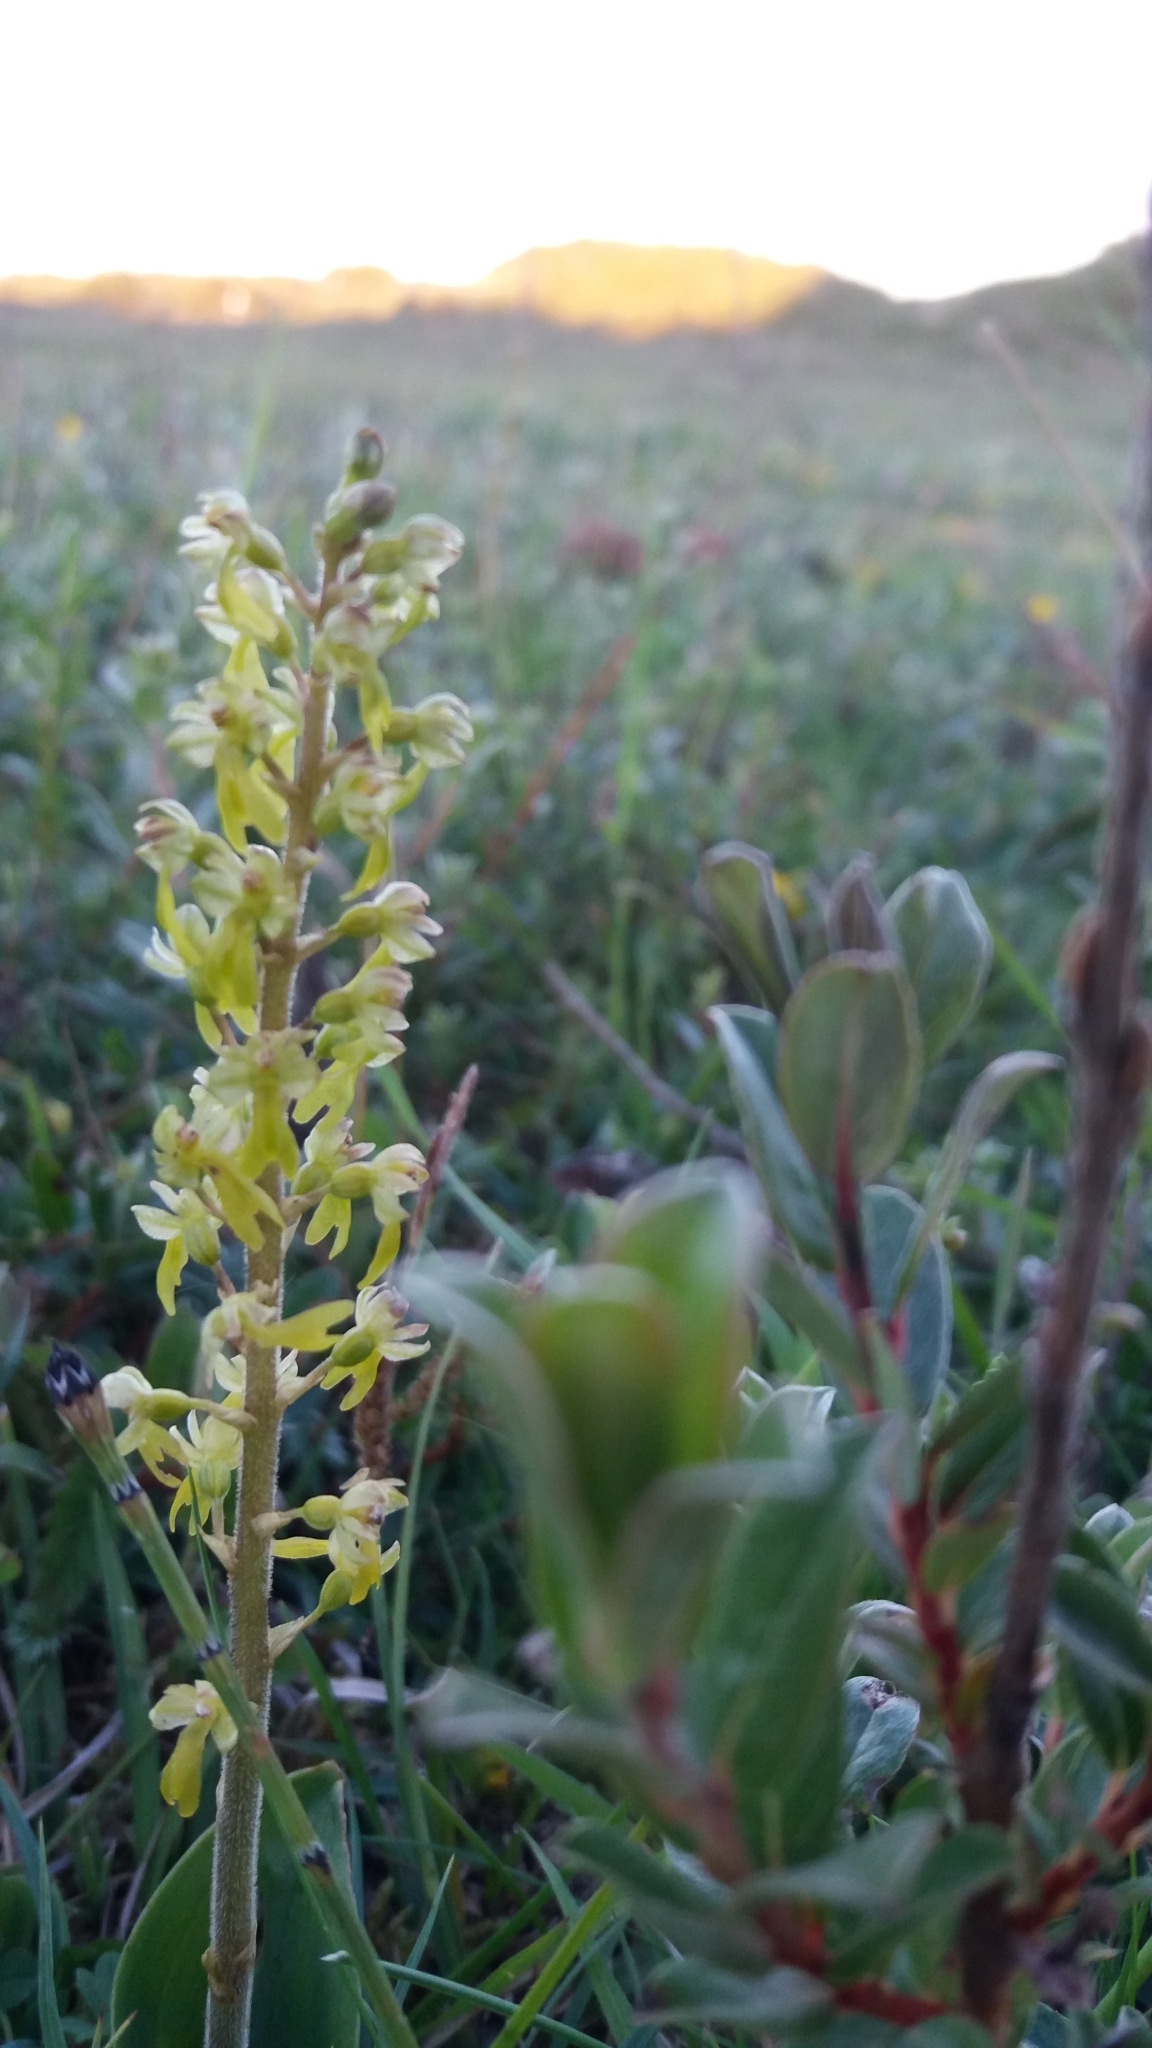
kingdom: Plantae
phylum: Tracheophyta
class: Liliopsida
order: Asparagales
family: Orchidaceae
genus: Neottia
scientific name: Neottia ovata
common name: Common twayblade
